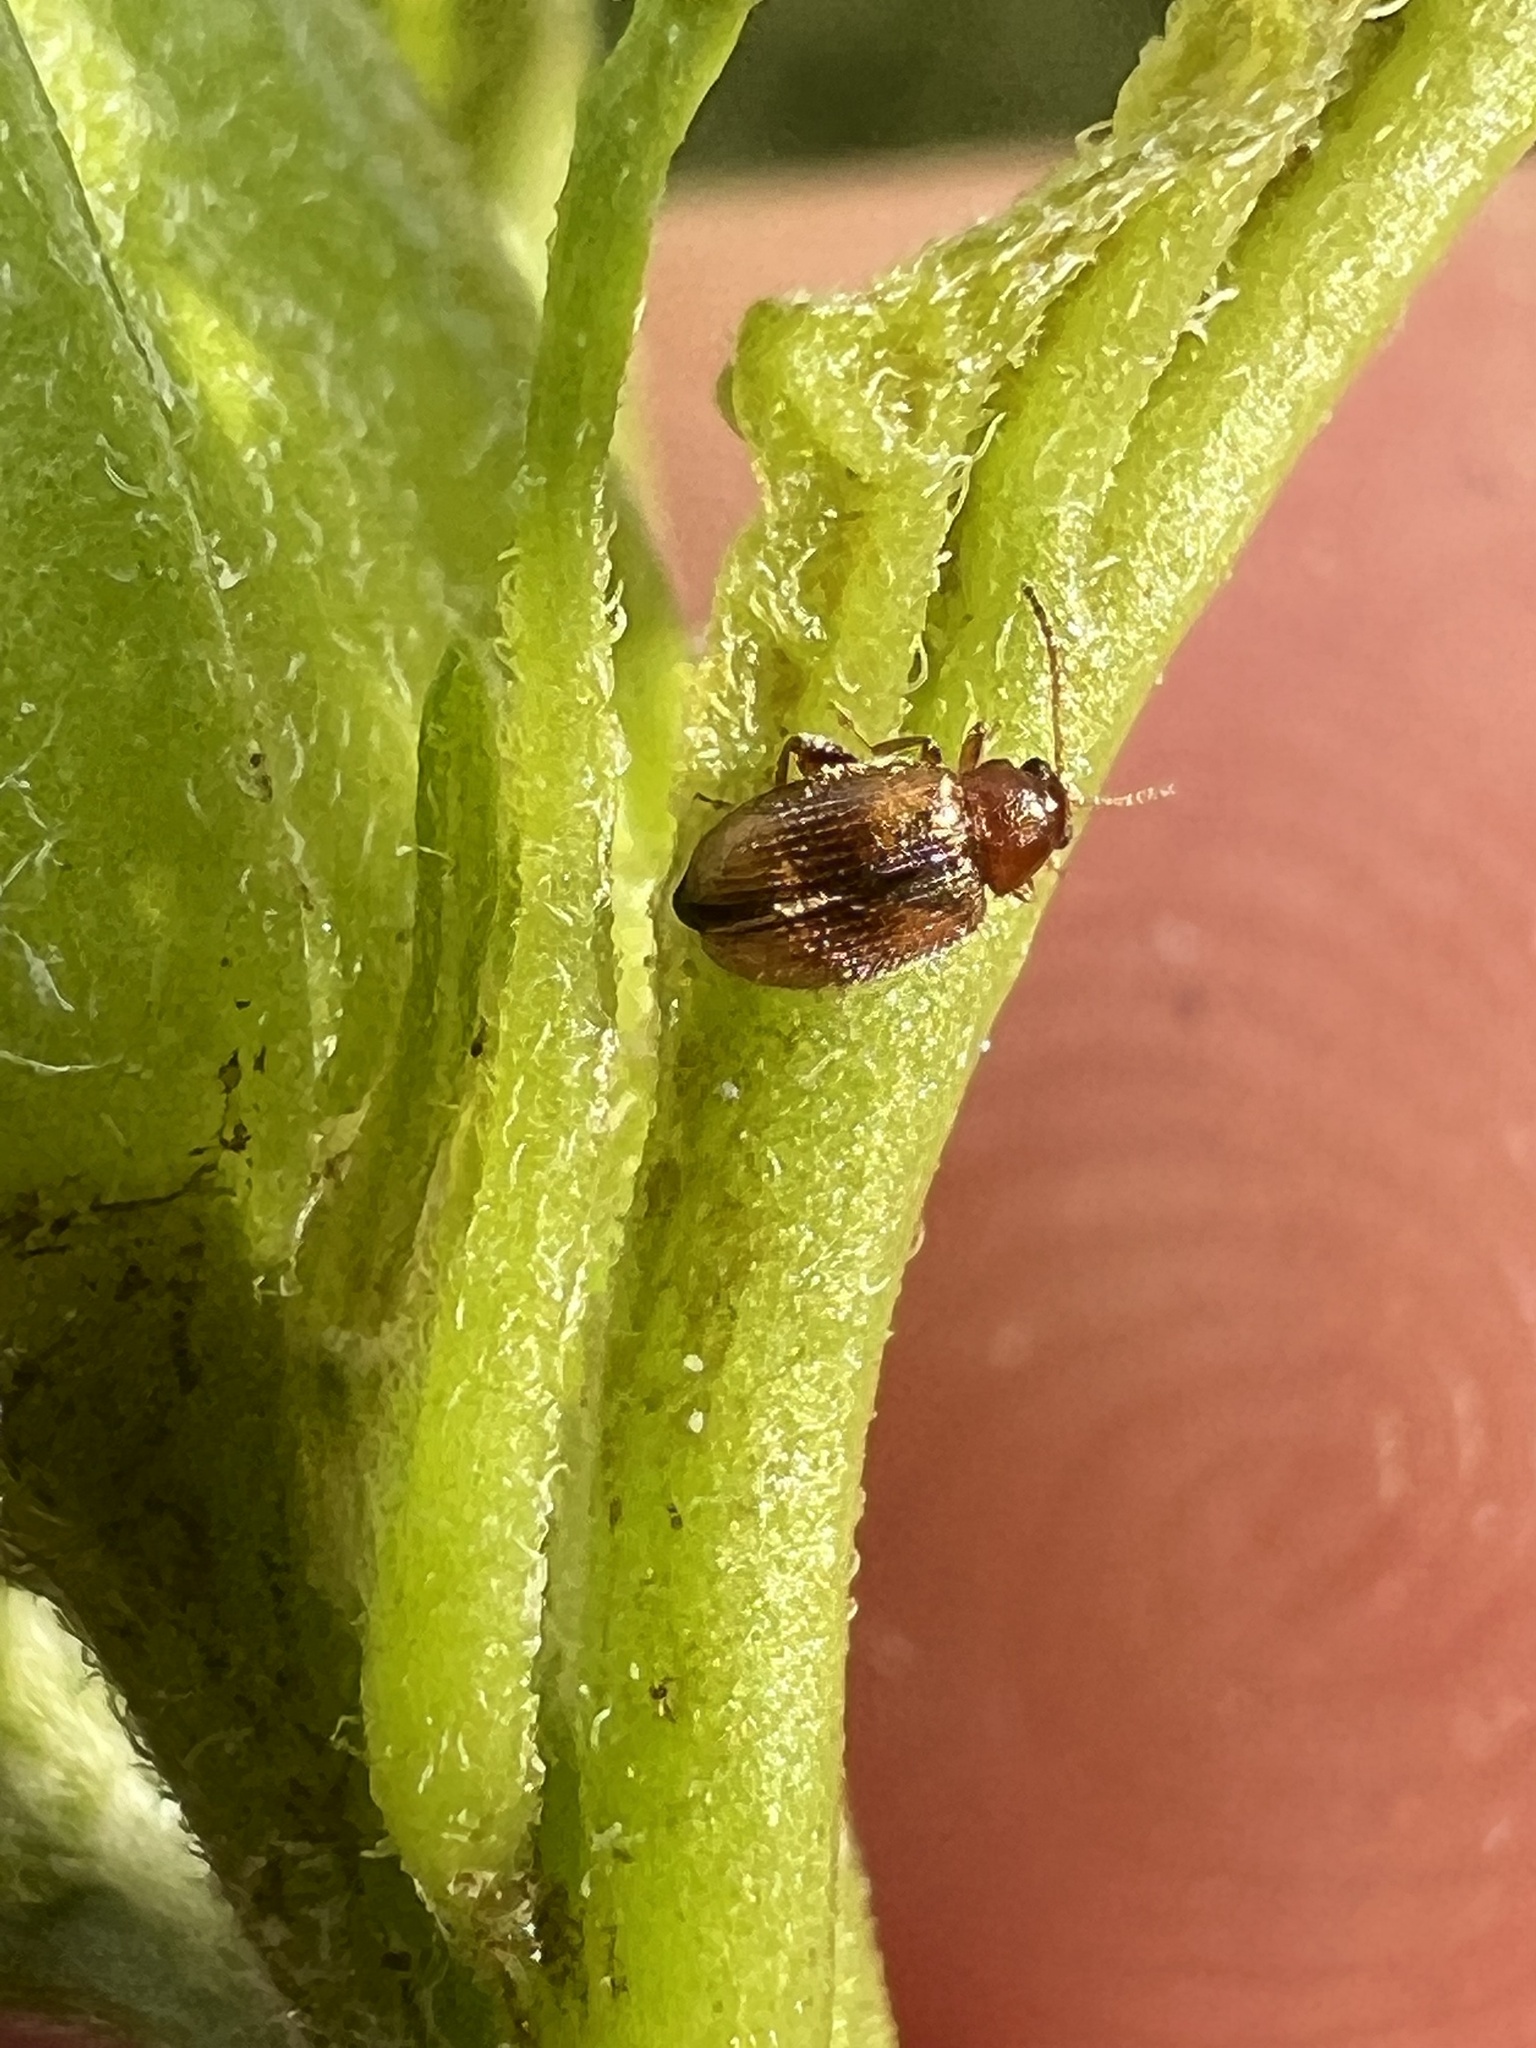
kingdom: Animalia
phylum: Arthropoda
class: Insecta
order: Coleoptera
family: Chrysomelidae
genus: Epitrix
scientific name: Epitrix hirtipennis
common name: Tobacco flea beetle
